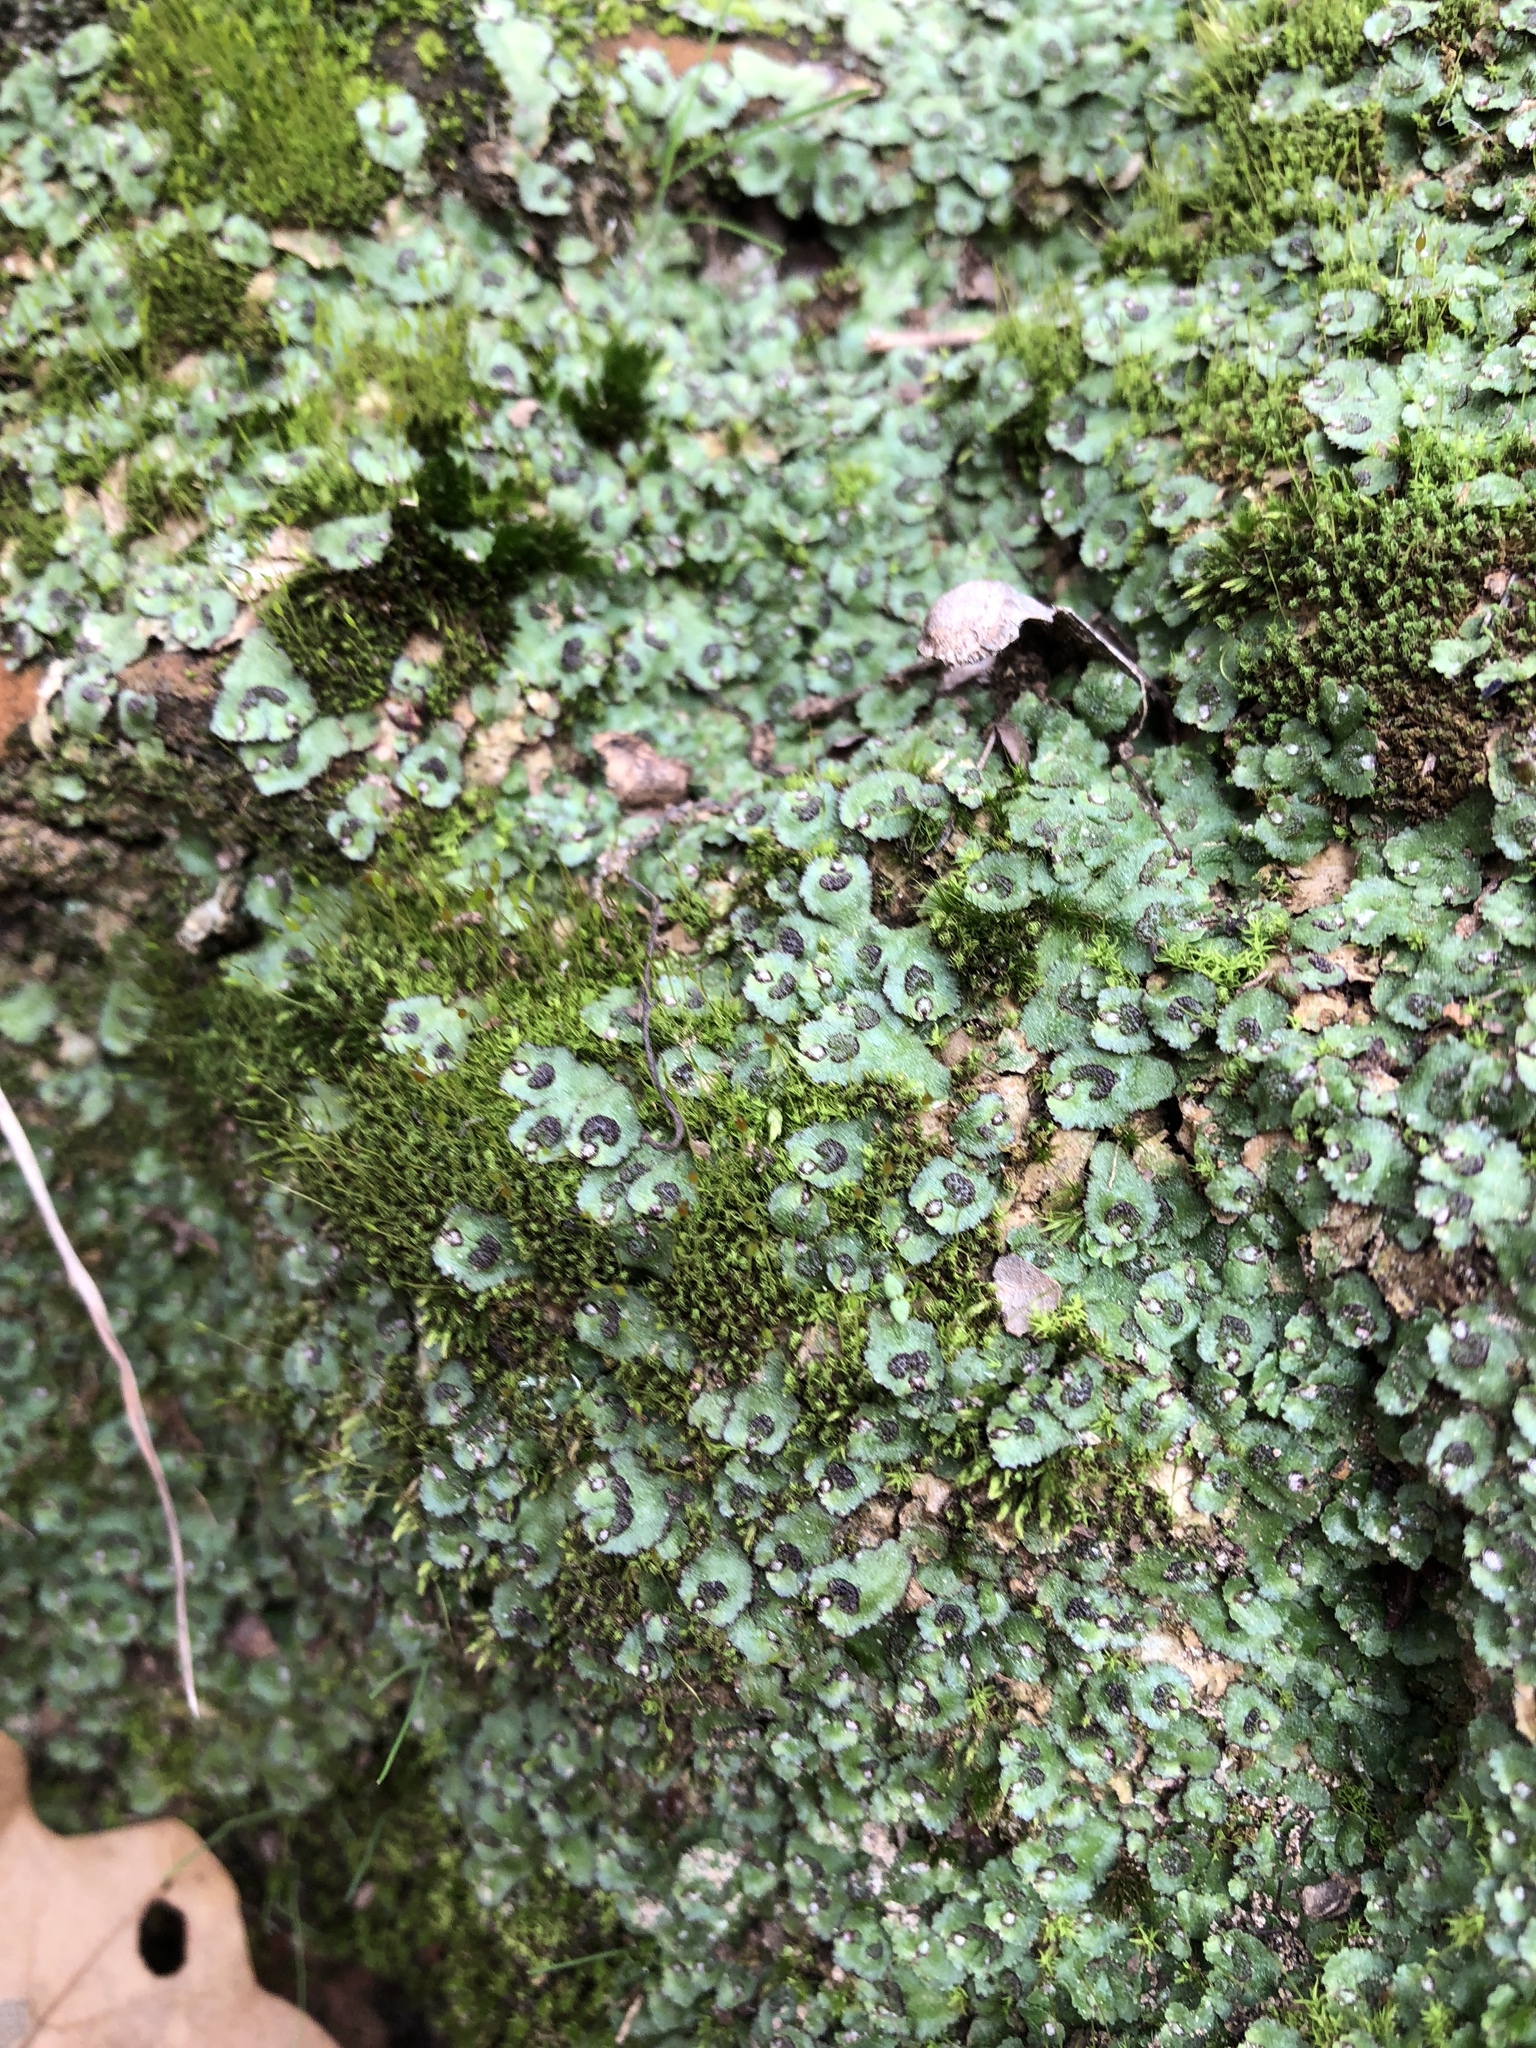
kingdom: Plantae
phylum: Marchantiophyta
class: Marchantiopsida
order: Marchantiales
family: Aytoniaceae
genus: Reboulia
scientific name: Reboulia hemisphaerica
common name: Purple-margined liverwort
